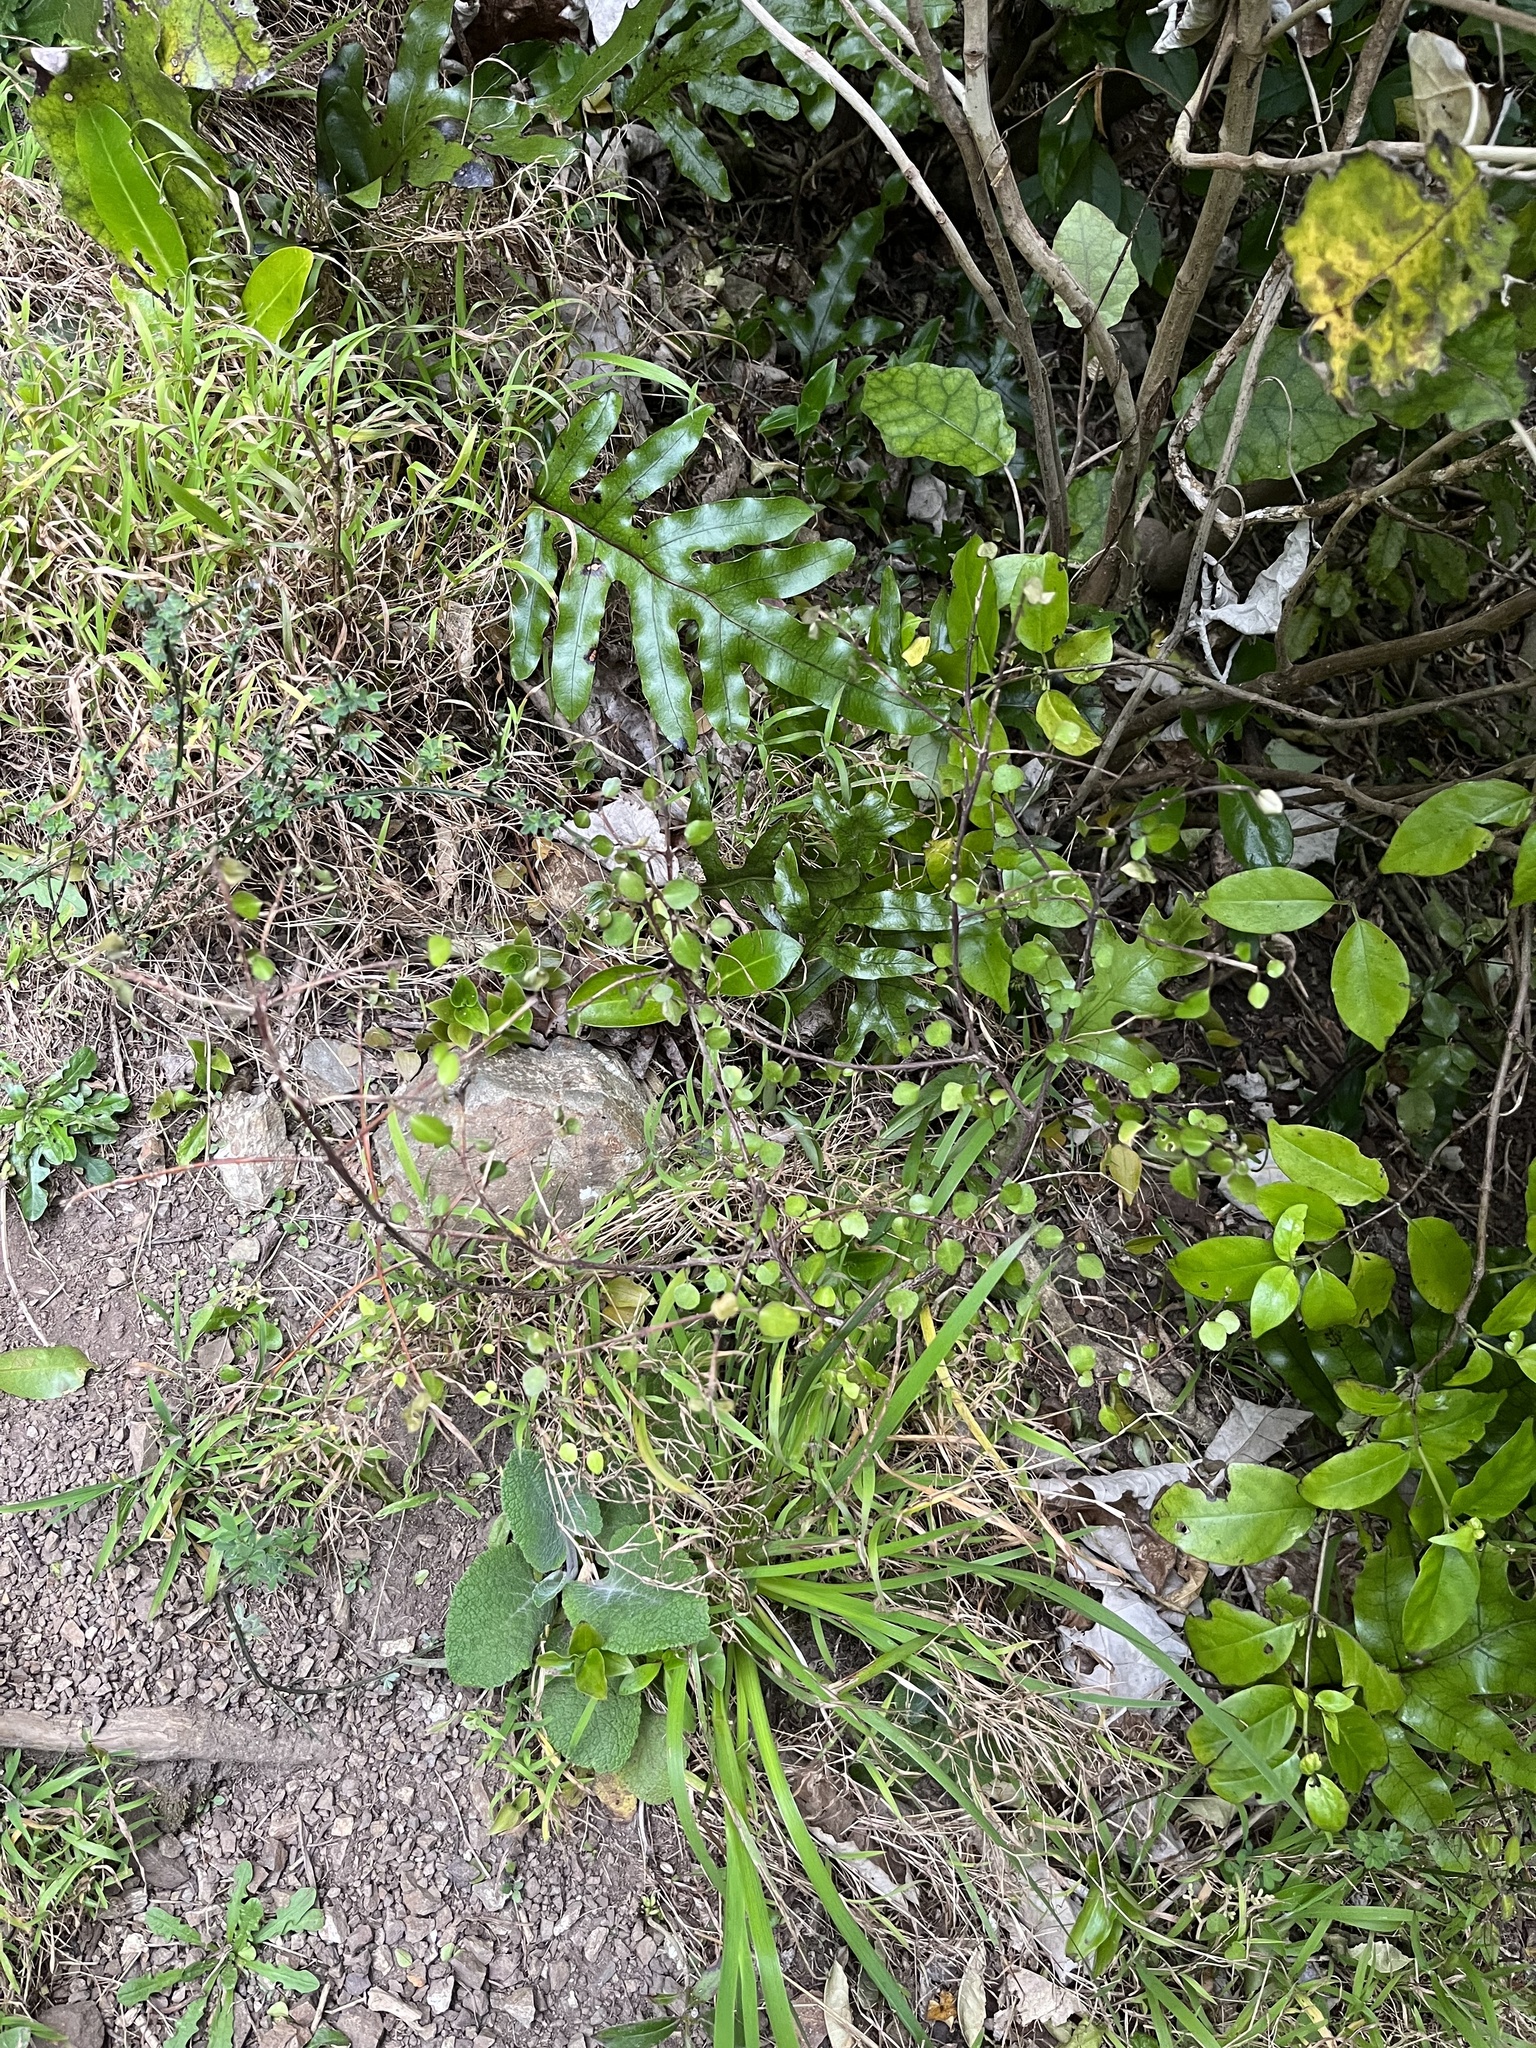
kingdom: Plantae
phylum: Tracheophyta
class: Magnoliopsida
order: Sapindales
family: Rutaceae
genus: Melicope
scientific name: Melicope simplex
